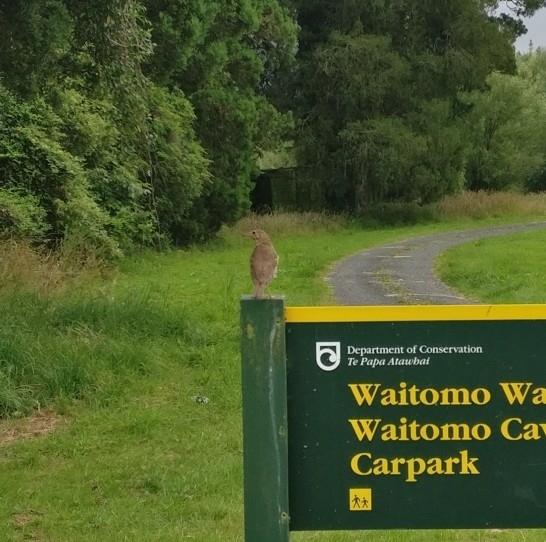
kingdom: Animalia
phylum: Chordata
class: Aves
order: Passeriformes
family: Turdidae
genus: Turdus
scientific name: Turdus philomelos
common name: Song thrush
